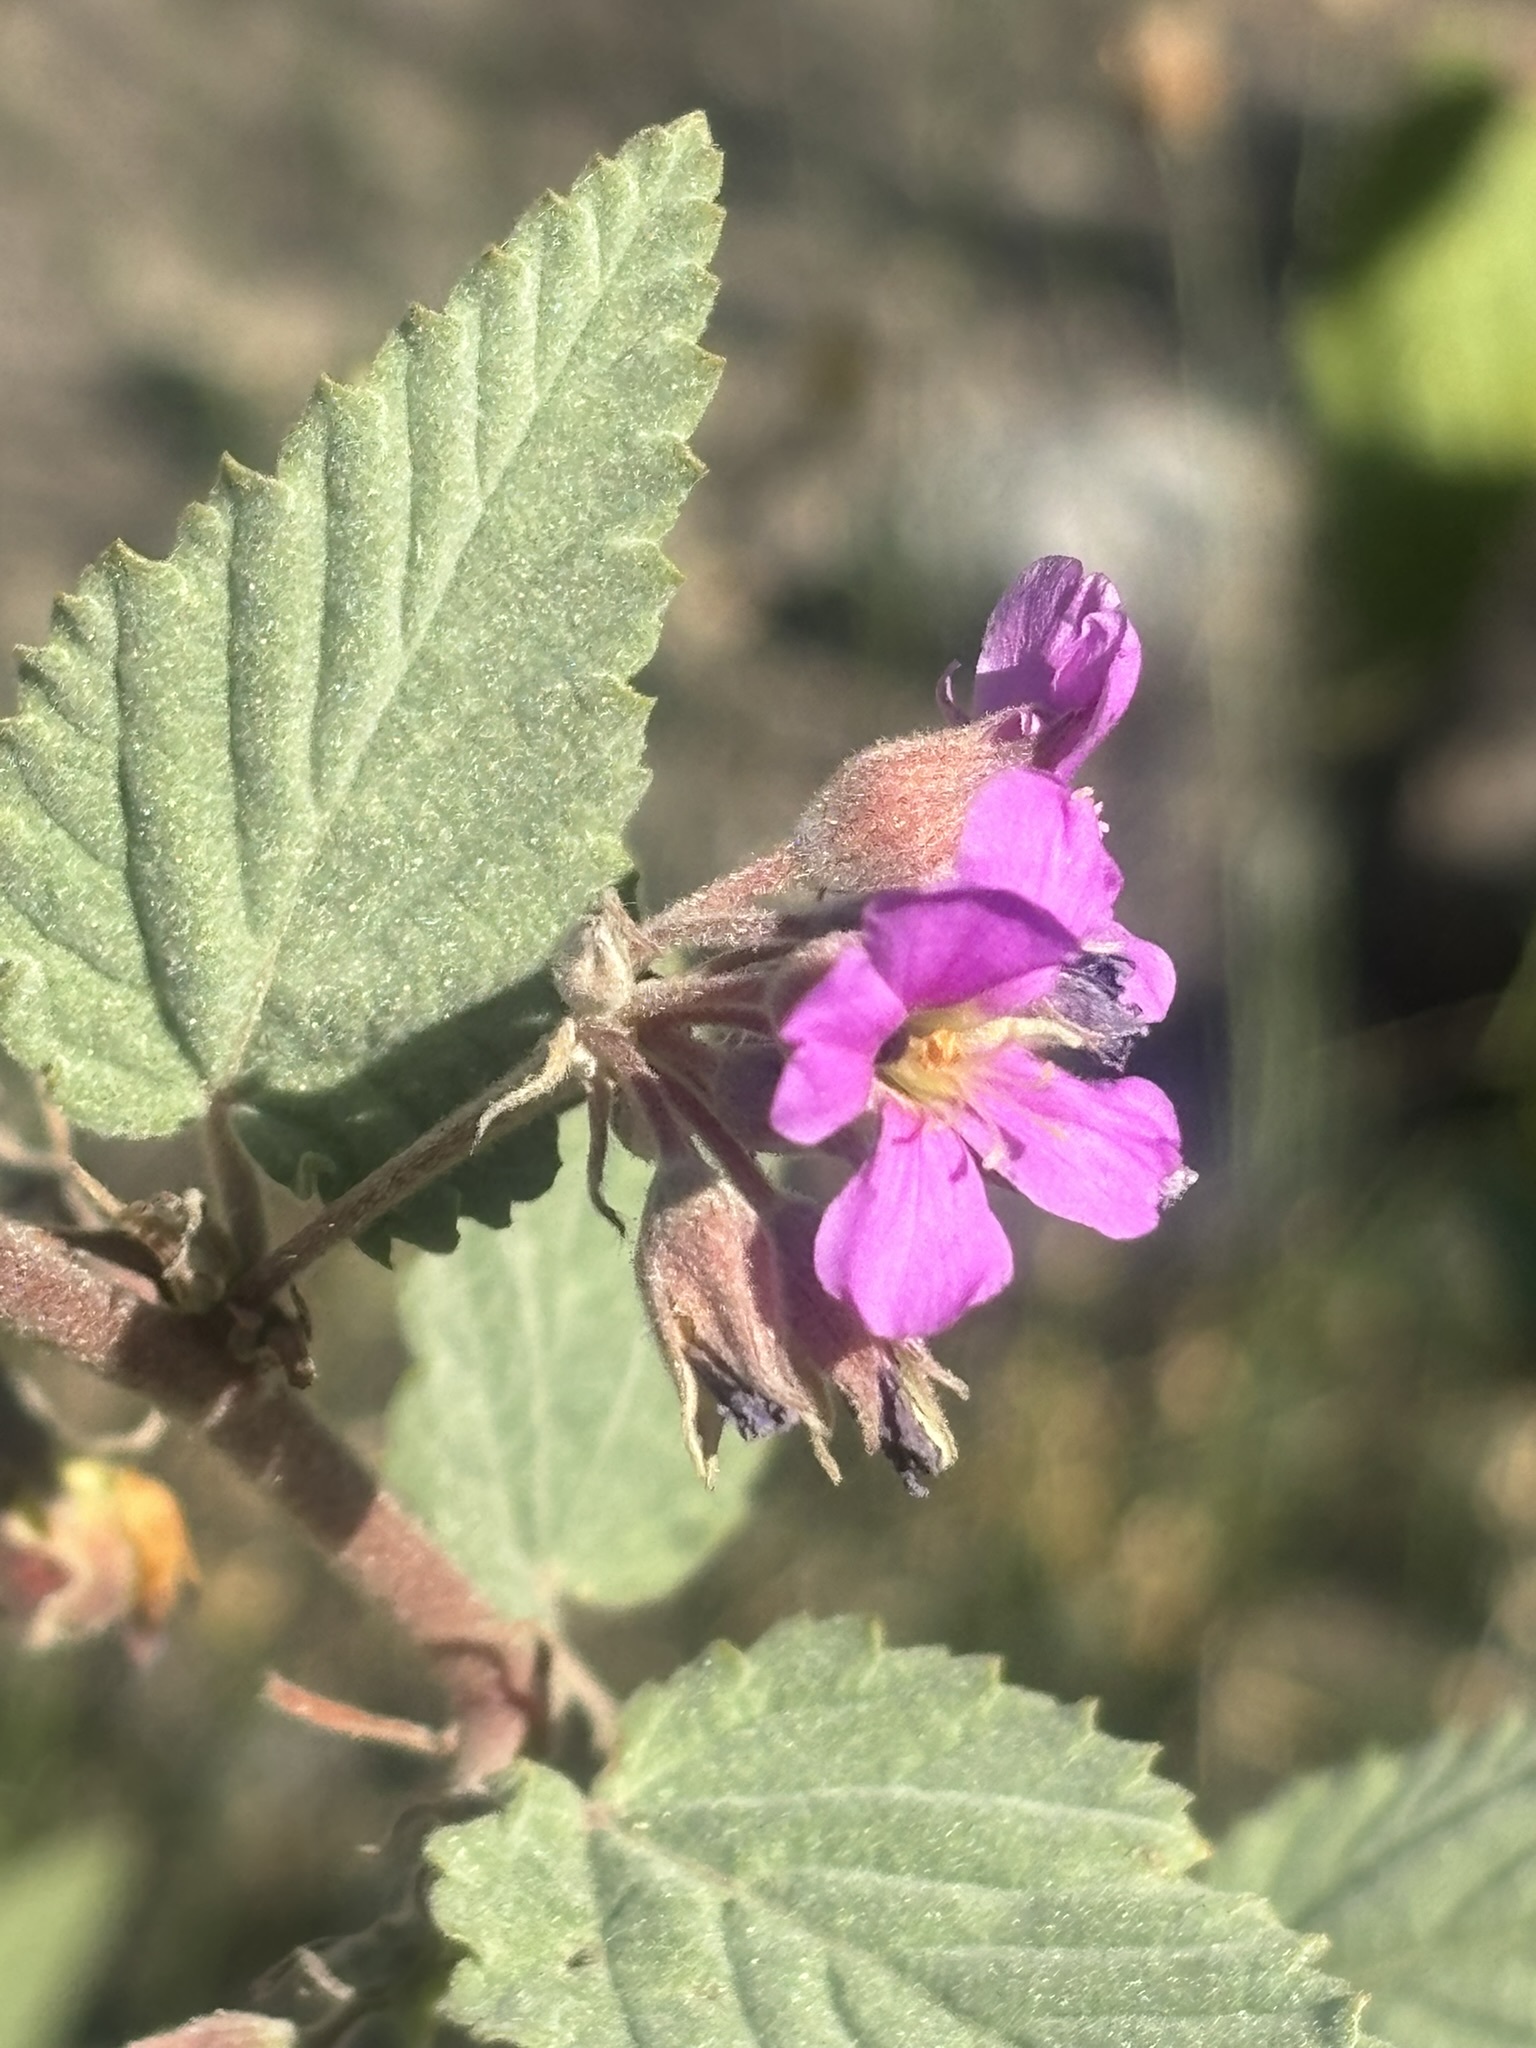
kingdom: Plantae
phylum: Tracheophyta
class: Magnoliopsida
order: Malvales
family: Malvaceae
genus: Melochia
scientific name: Melochia tomentosa
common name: Black torch
